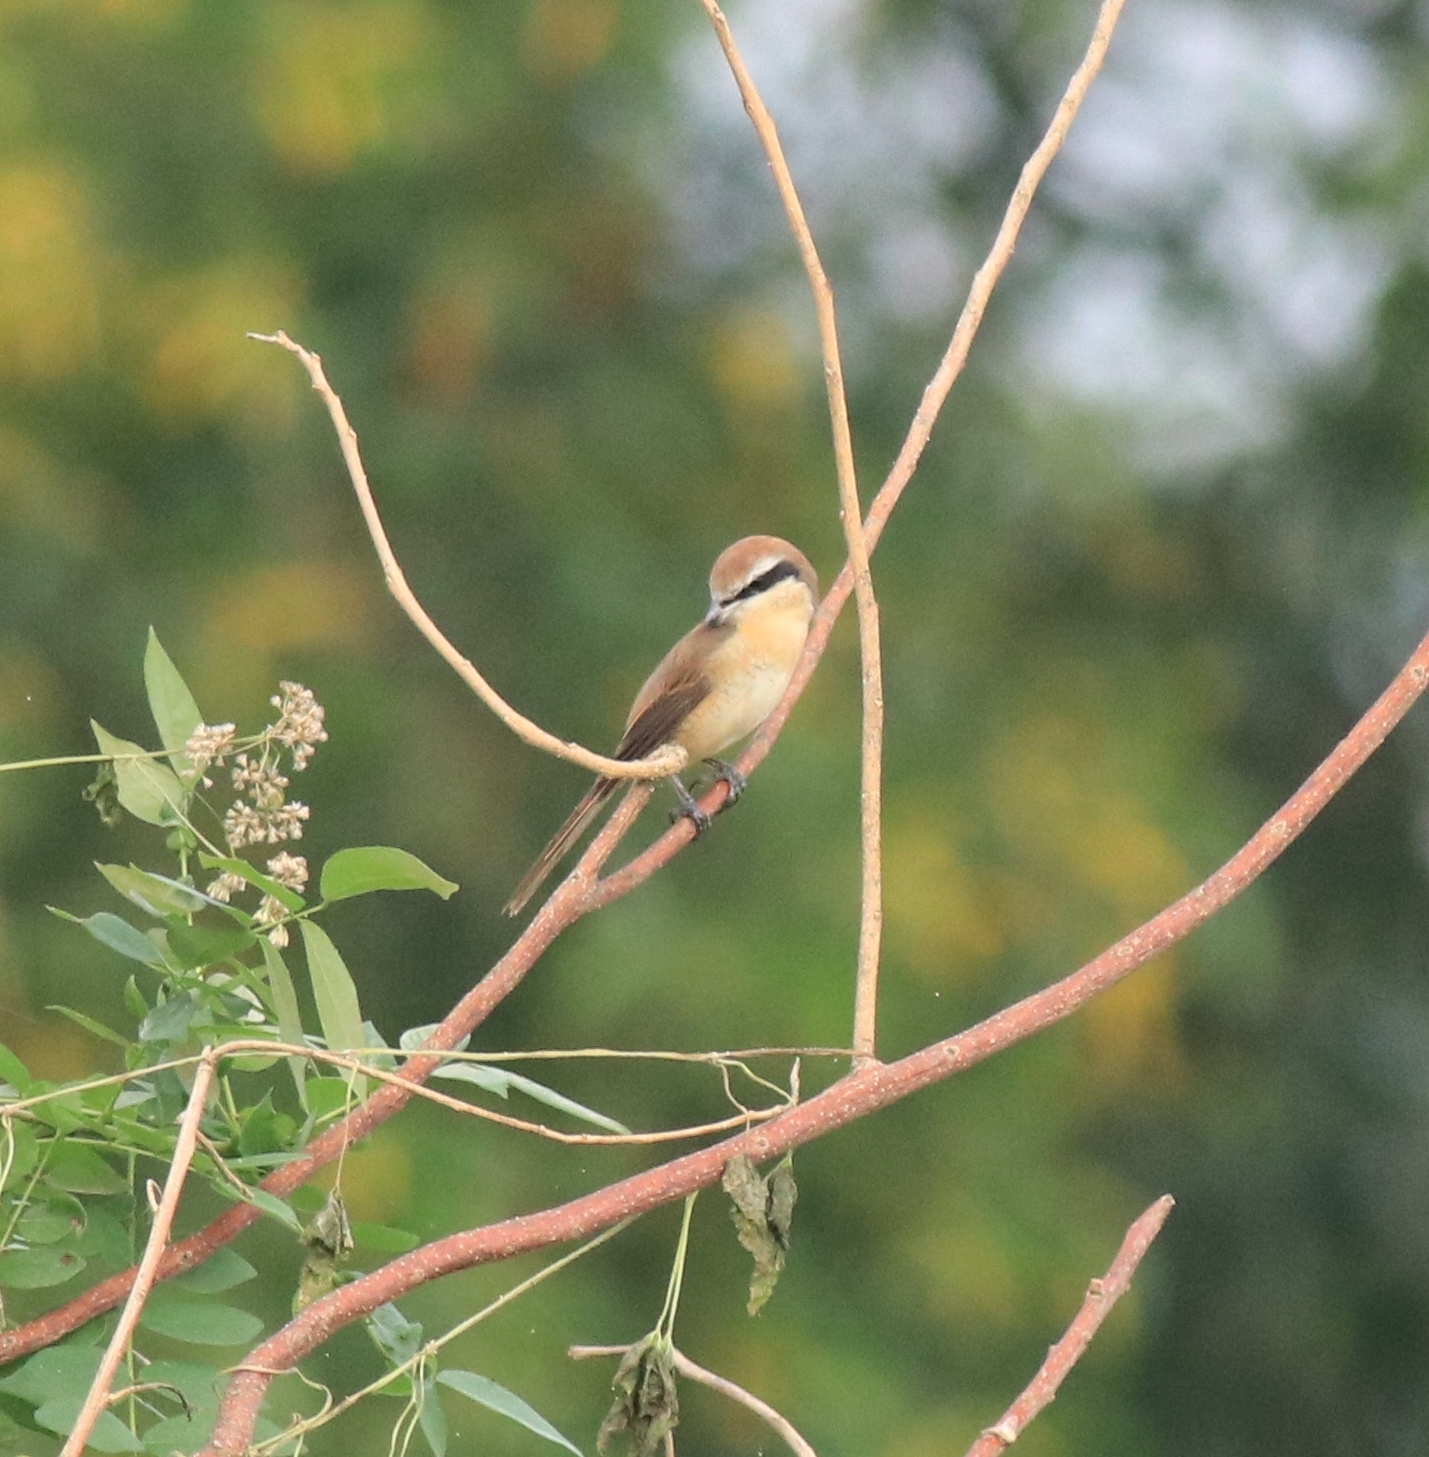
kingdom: Animalia
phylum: Chordata
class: Aves
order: Passeriformes
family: Laniidae
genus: Lanius
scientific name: Lanius cristatus
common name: Brown shrike
